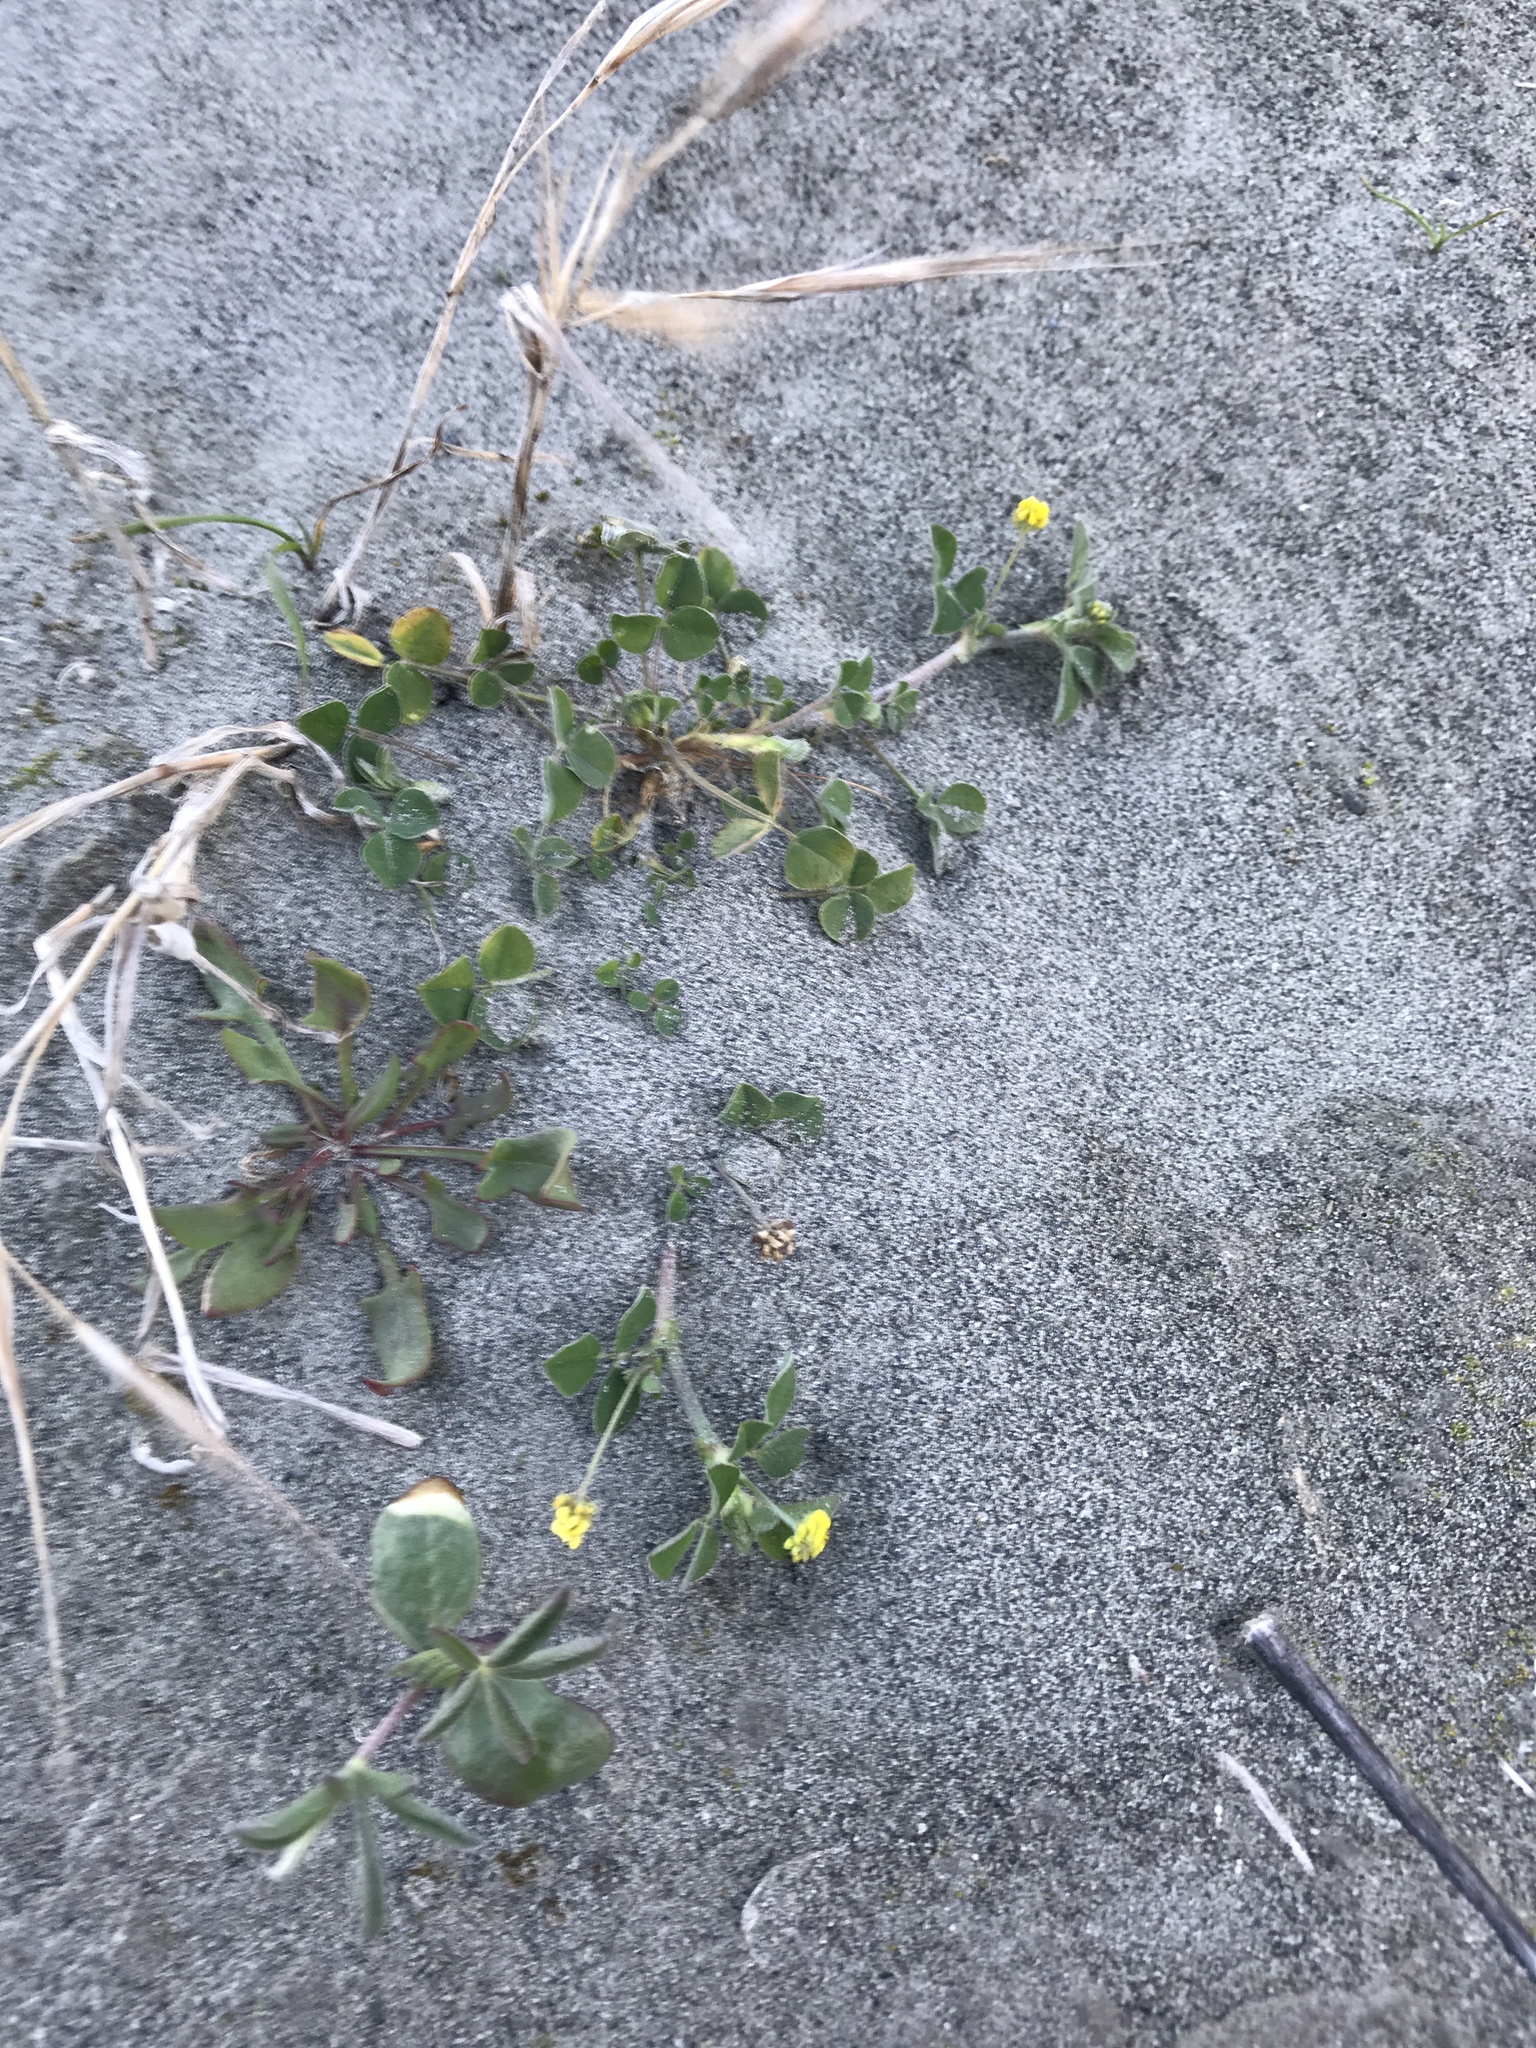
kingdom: Plantae
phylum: Tracheophyta
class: Magnoliopsida
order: Fabales
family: Fabaceae
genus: Medicago
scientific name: Medicago lupulina
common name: Black medick
